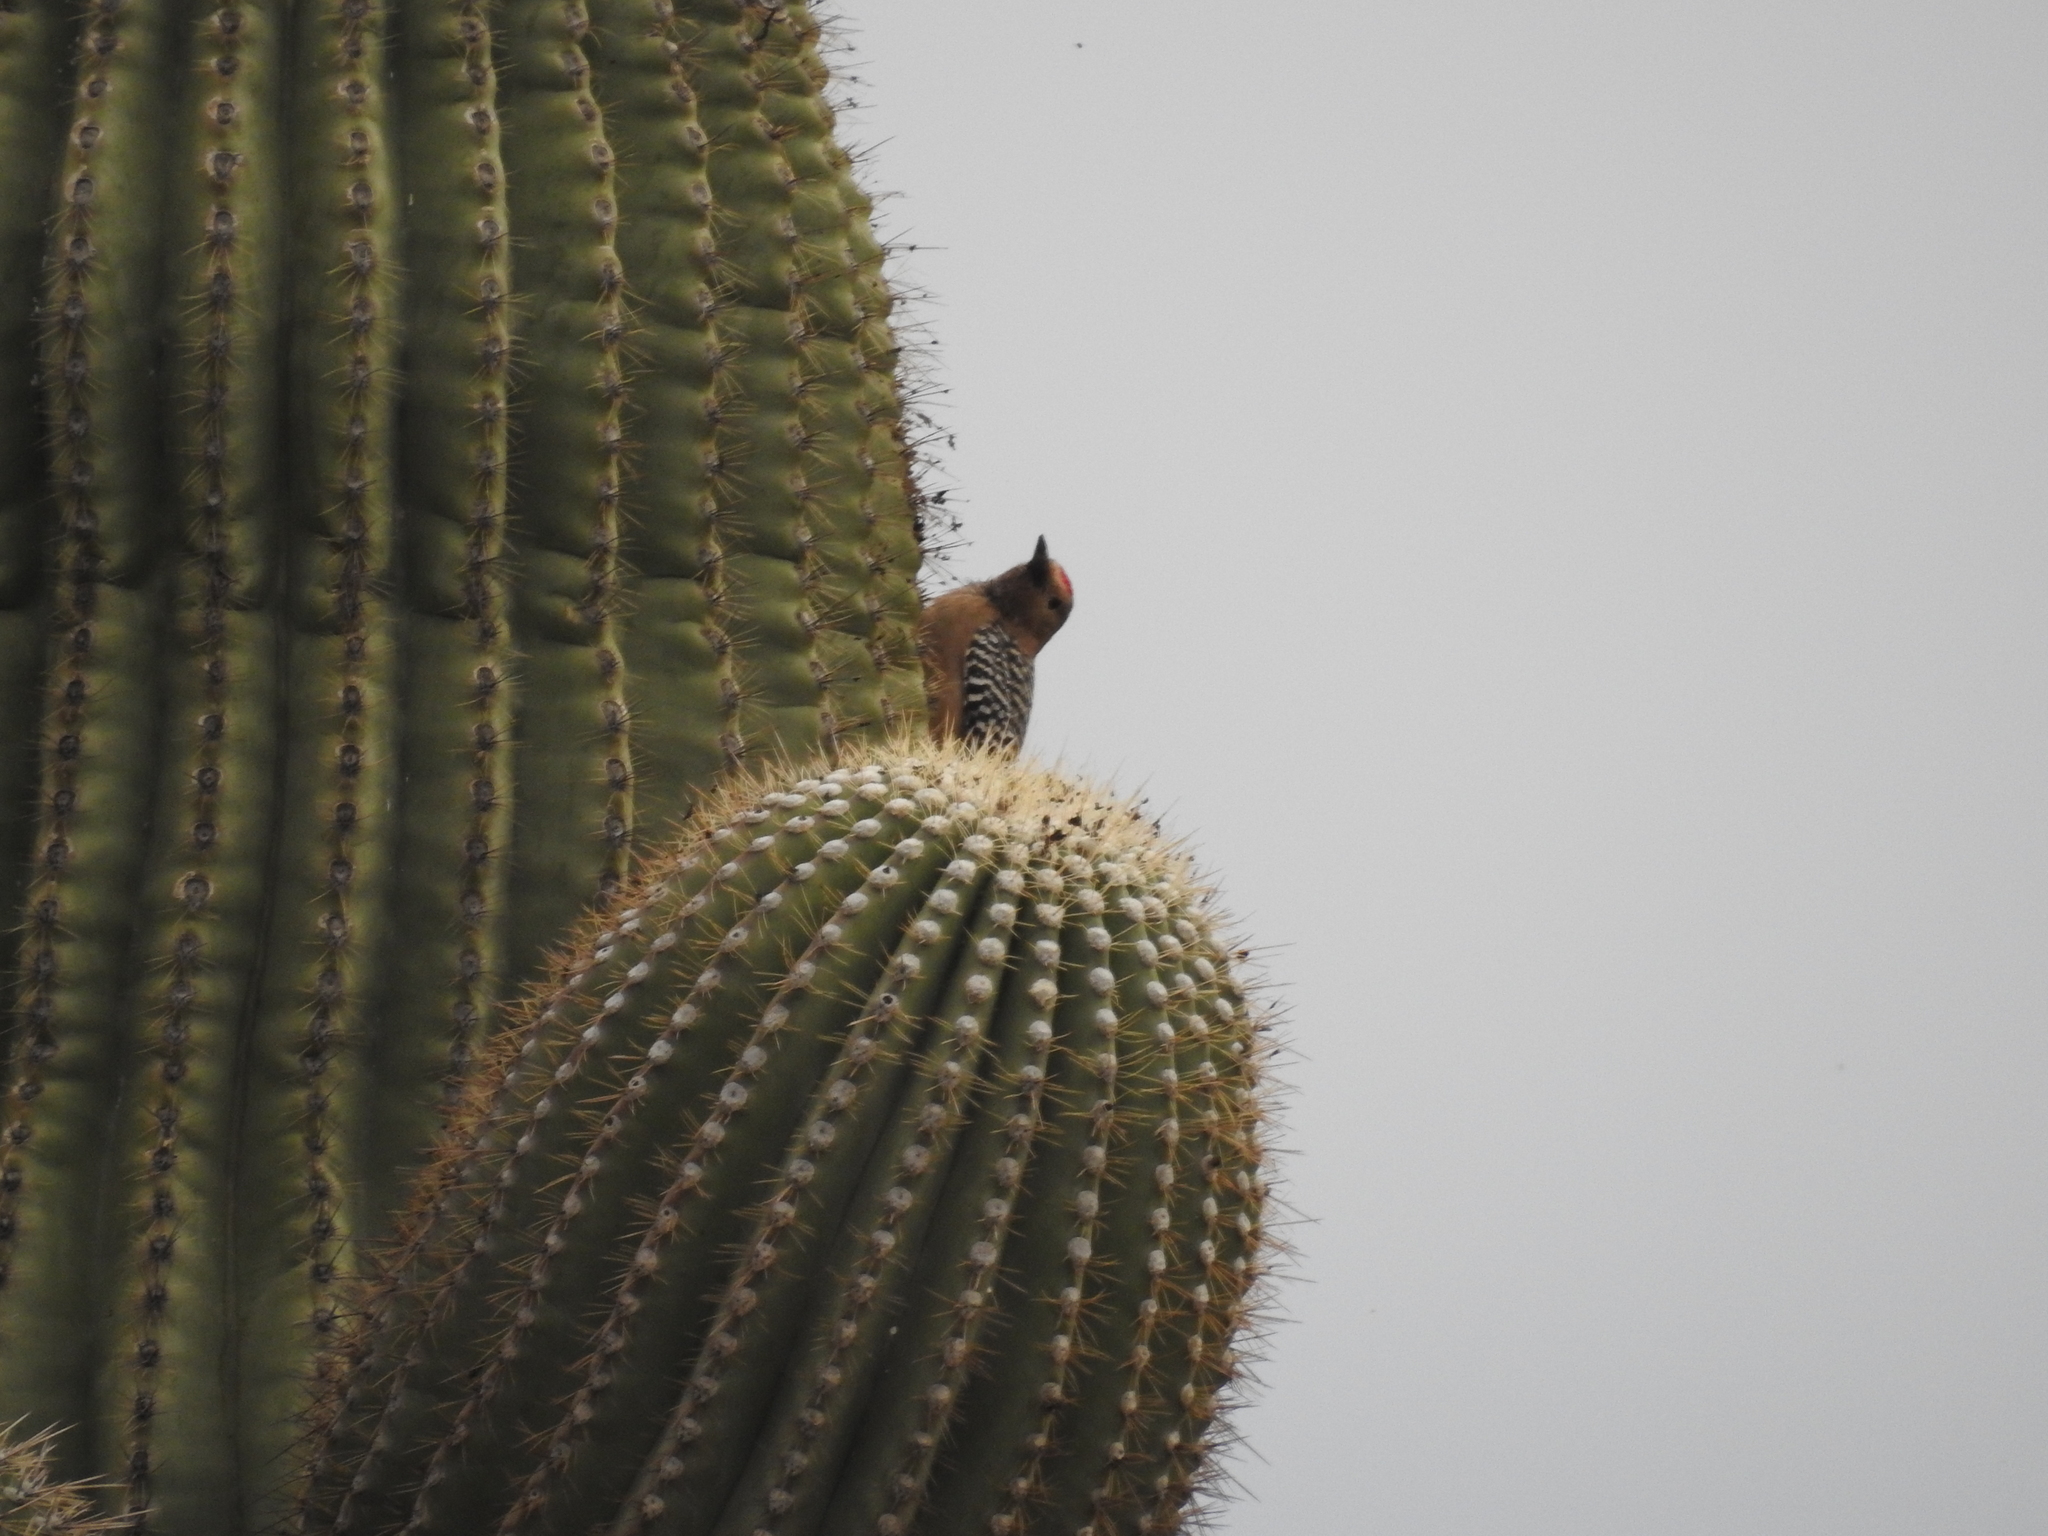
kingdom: Animalia
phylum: Chordata
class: Aves
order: Piciformes
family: Picidae
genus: Melanerpes
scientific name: Melanerpes uropygialis
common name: Gila woodpecker
